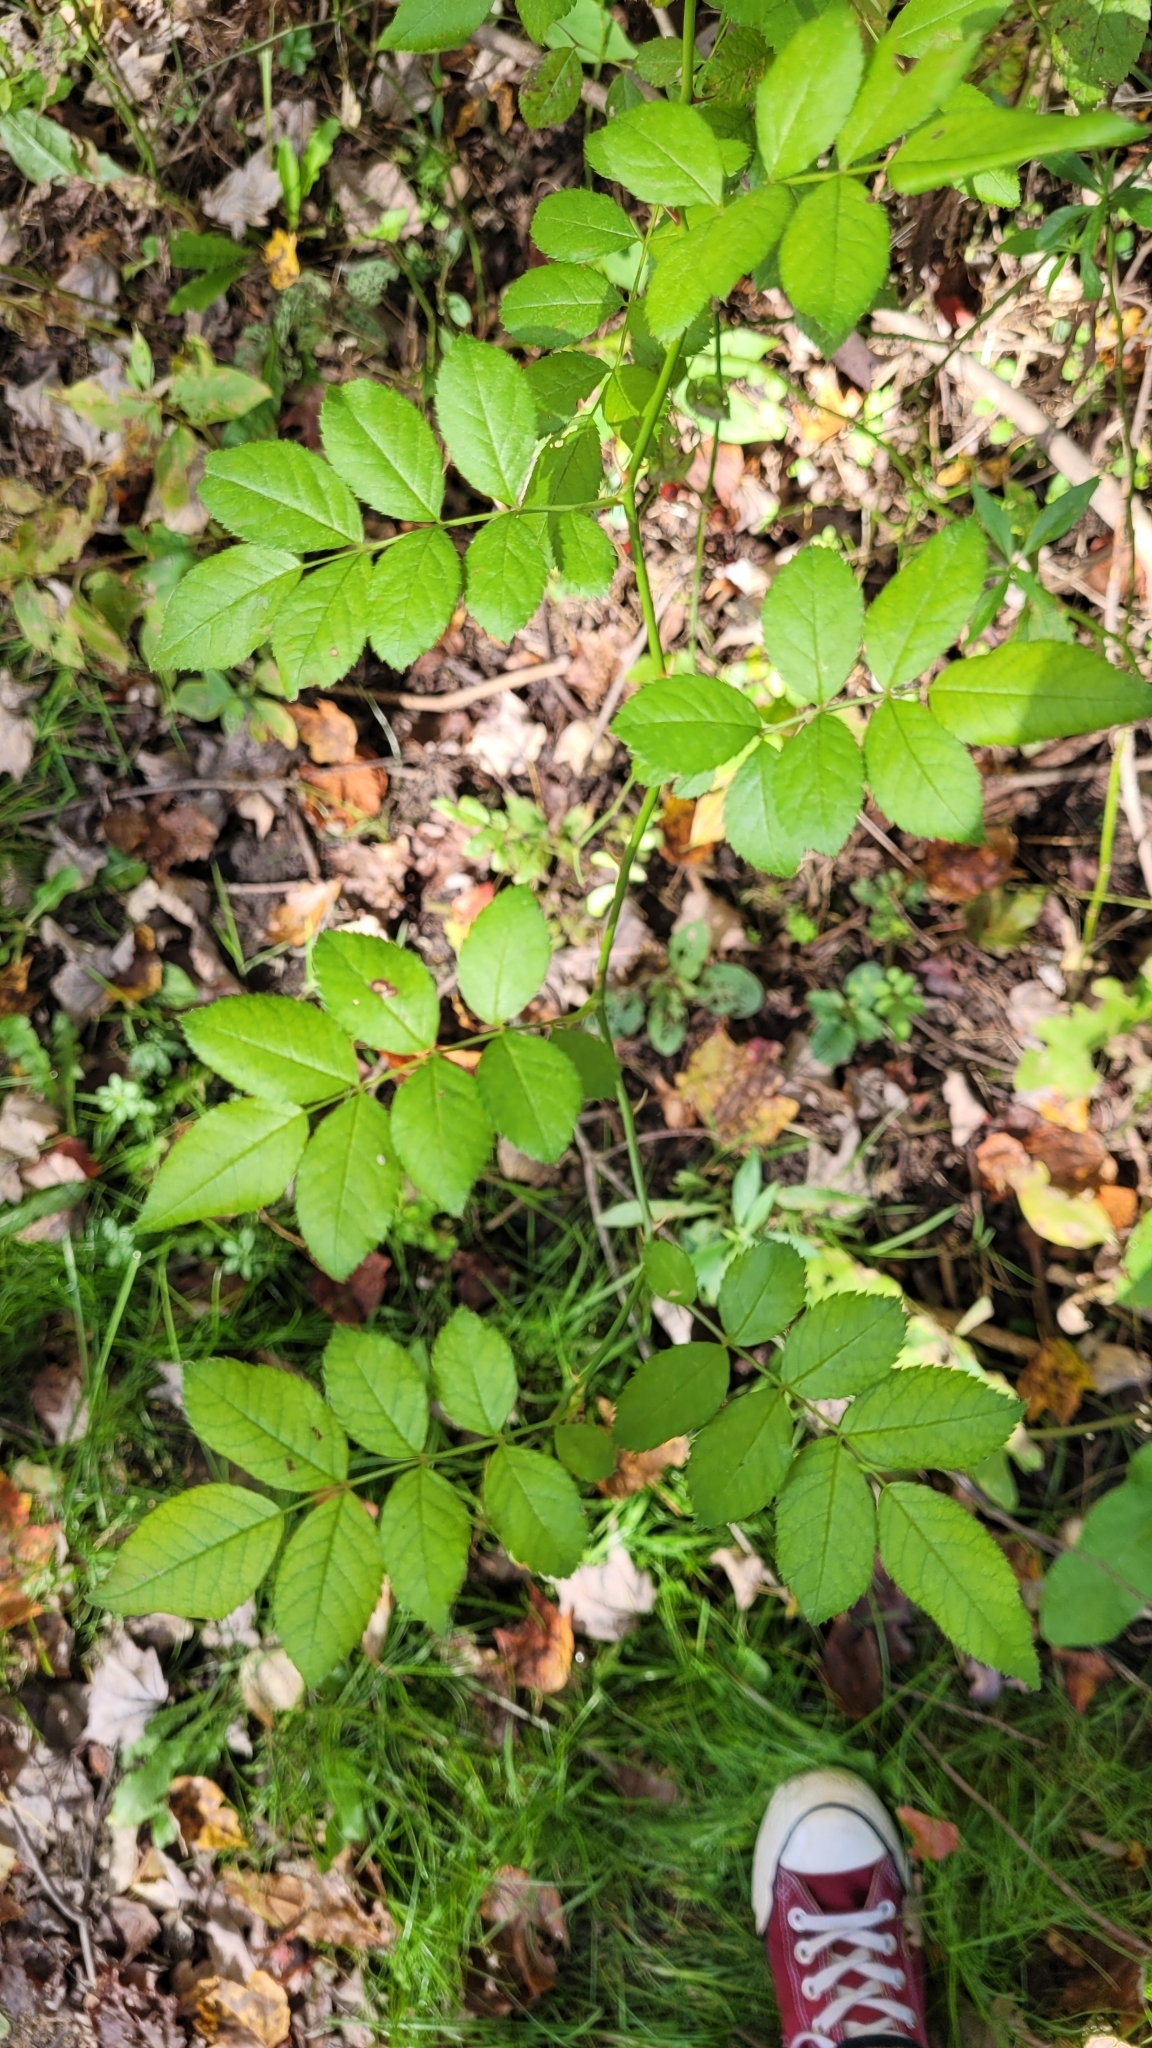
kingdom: Plantae
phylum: Tracheophyta
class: Magnoliopsida
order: Rosales
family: Rosaceae
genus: Rosa
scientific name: Rosa multiflora
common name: Multiflora rose
